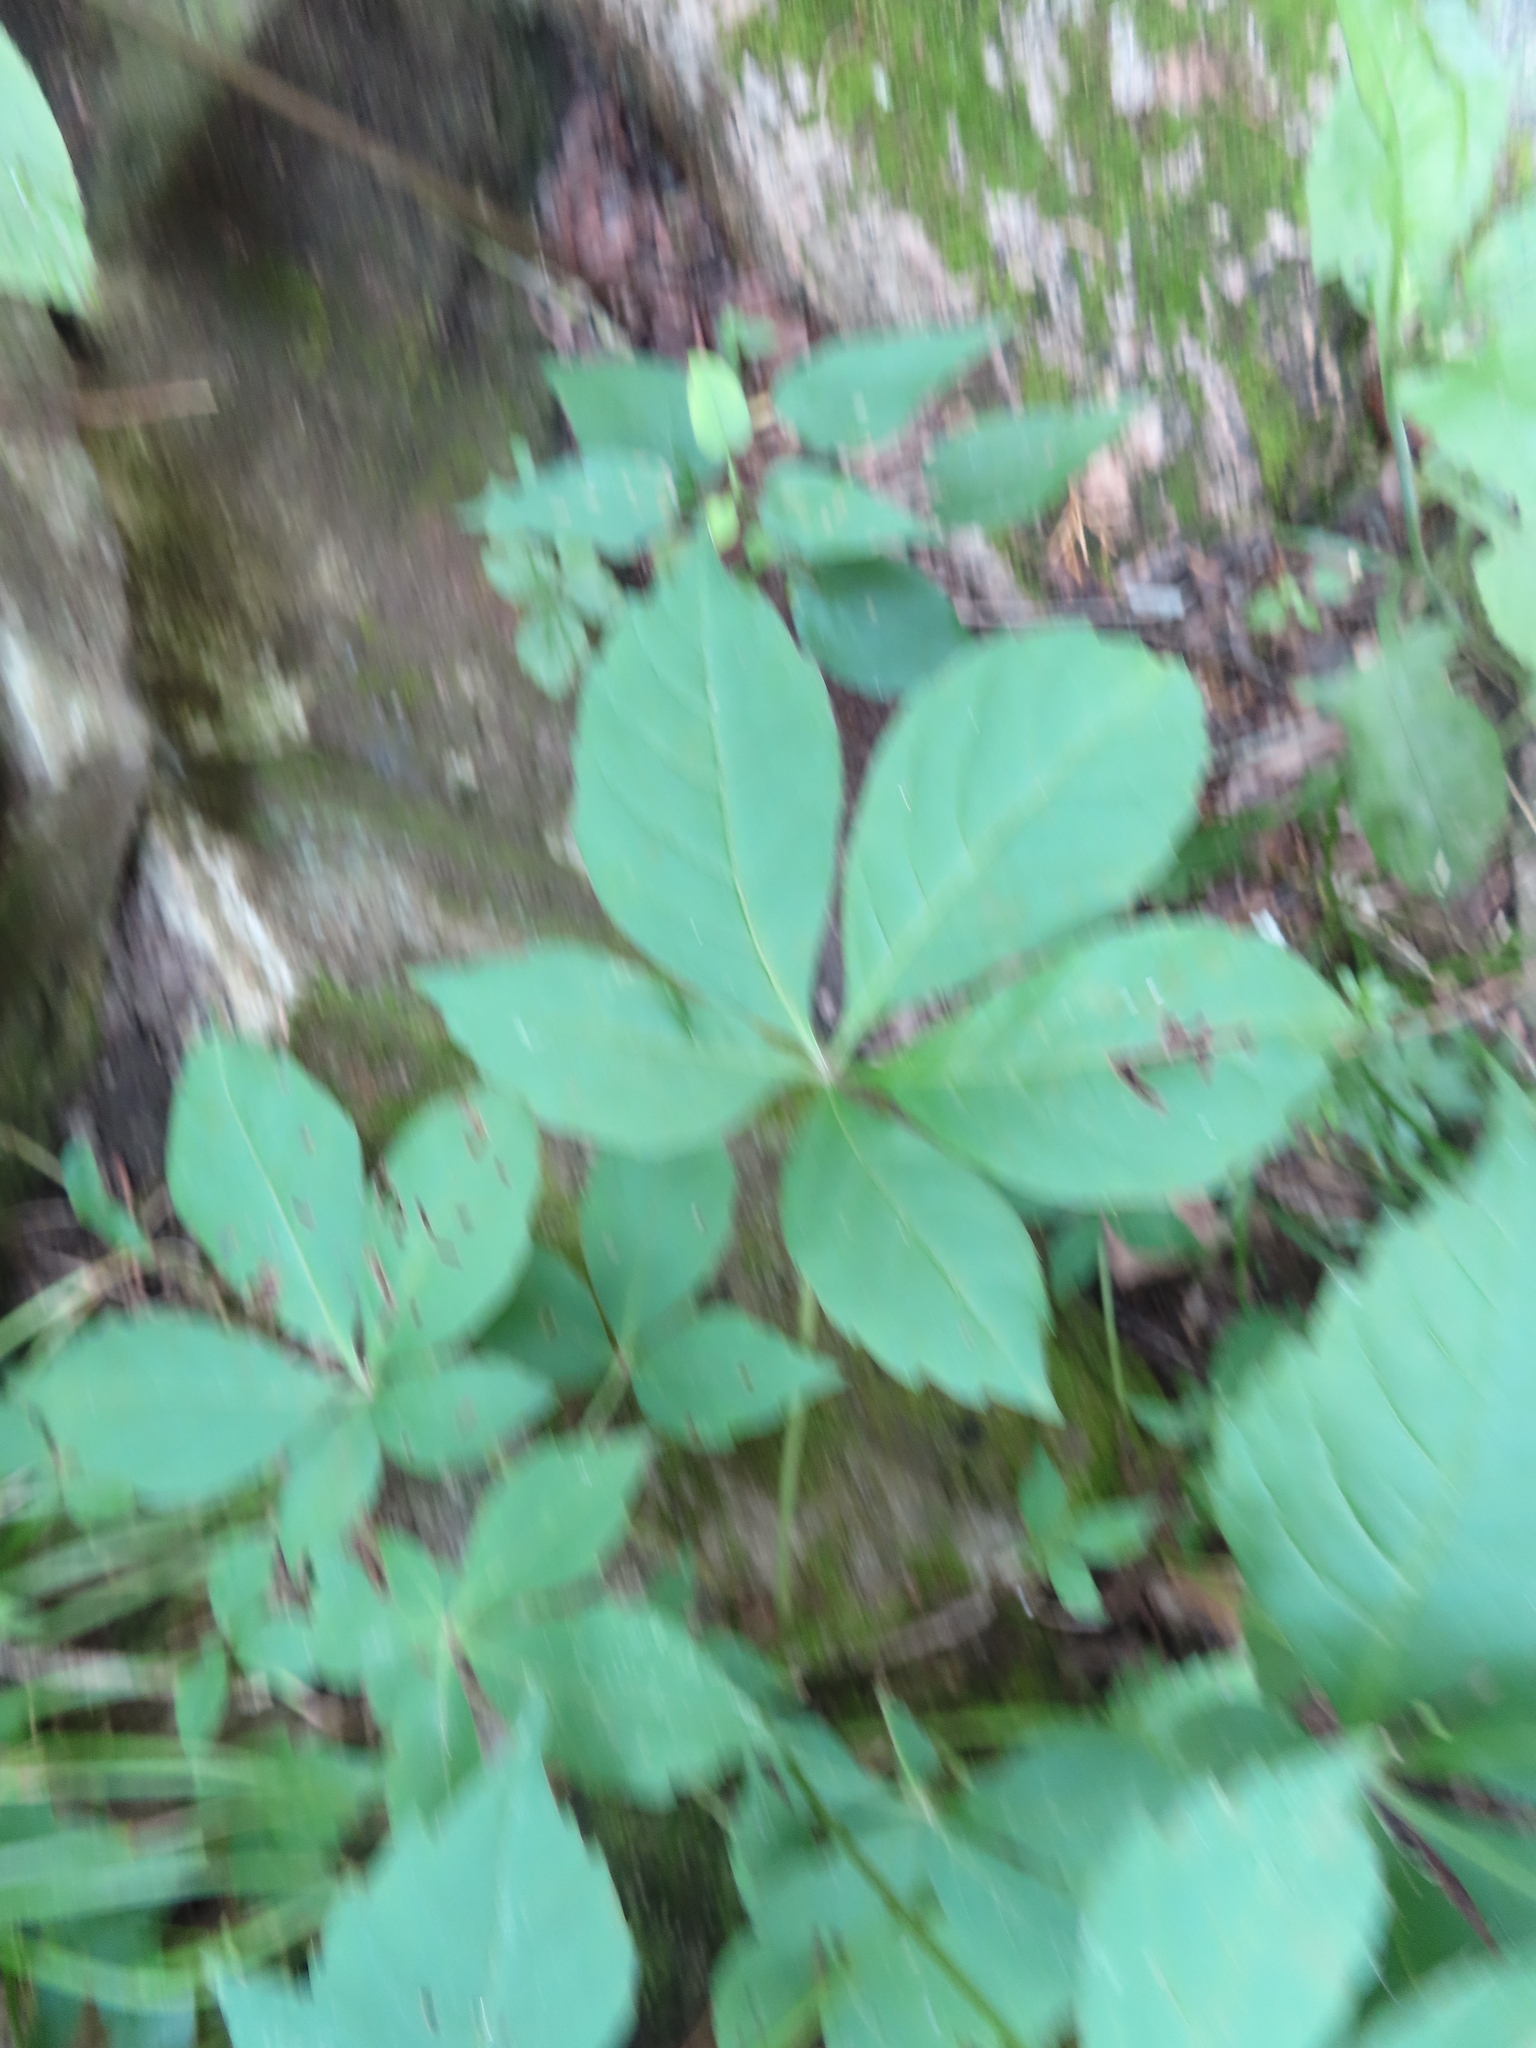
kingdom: Plantae
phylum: Tracheophyta
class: Magnoliopsida
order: Vitales
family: Vitaceae
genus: Parthenocissus
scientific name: Parthenocissus quinquefolia
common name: Virginia-creeper
